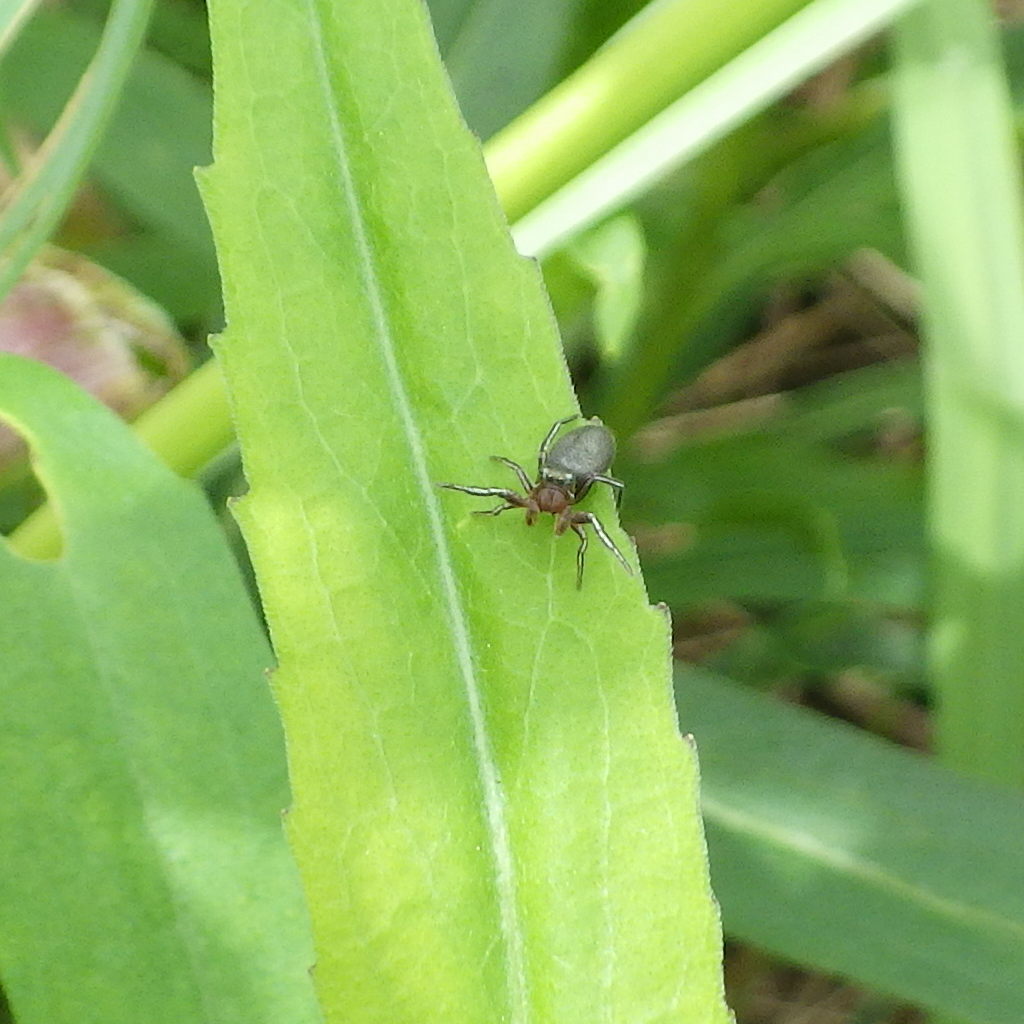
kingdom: Animalia
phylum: Arthropoda
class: Arachnida
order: Araneae
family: Salticidae
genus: Tutelina
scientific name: Tutelina similis
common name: Thick-spined jumping spider
